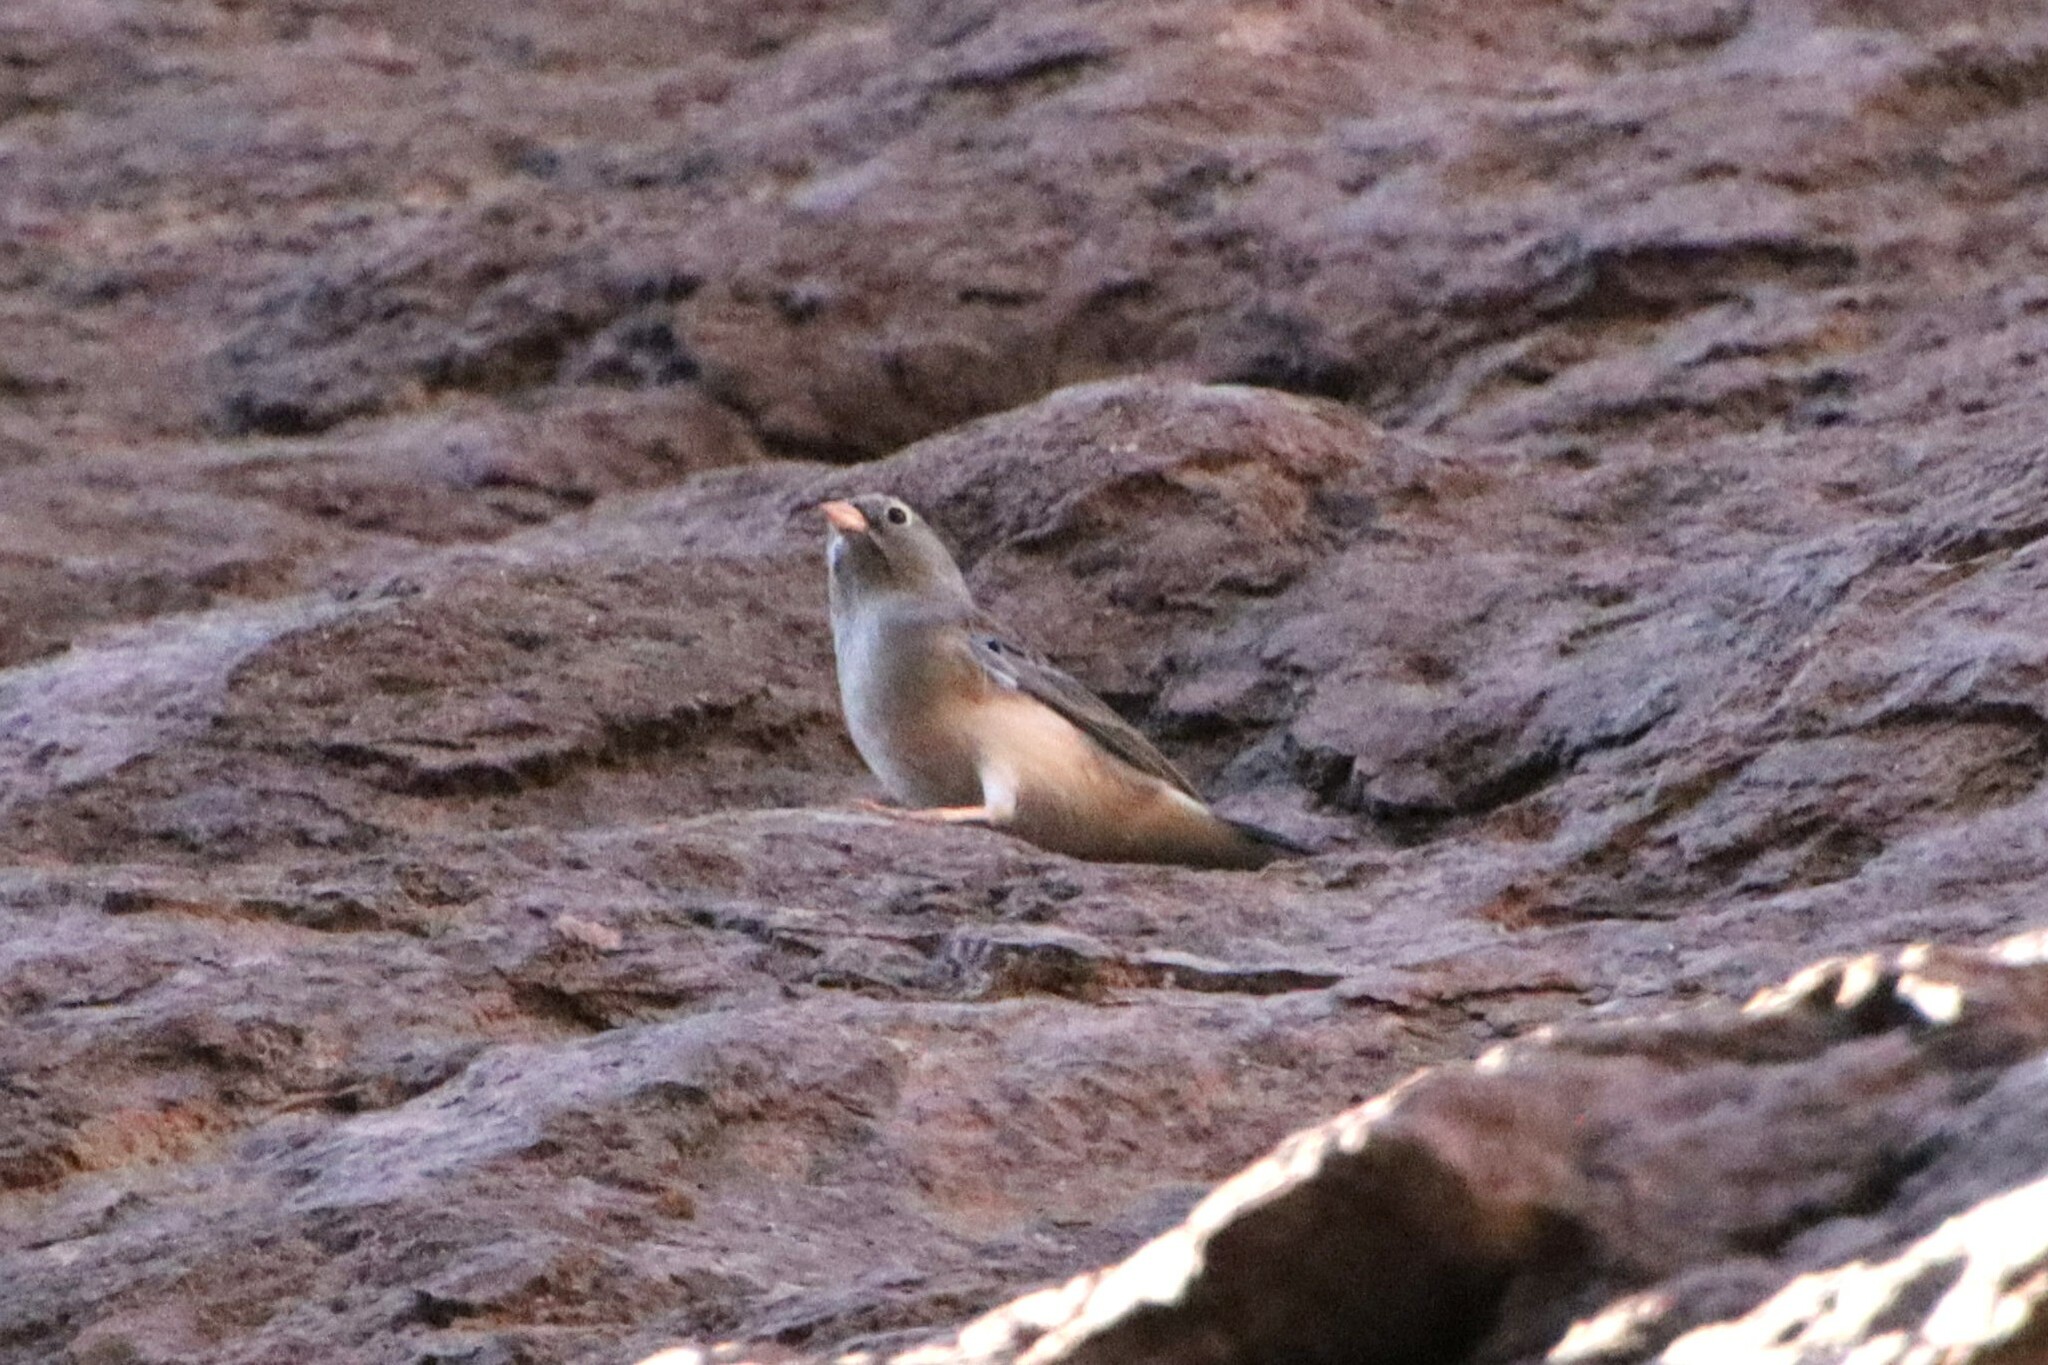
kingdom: Animalia
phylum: Chordata
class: Aves
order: Passeriformes
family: Thraupidae
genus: Porphyrospiza
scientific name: Porphyrospiza alaudina
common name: Band-tailed sierra finch
